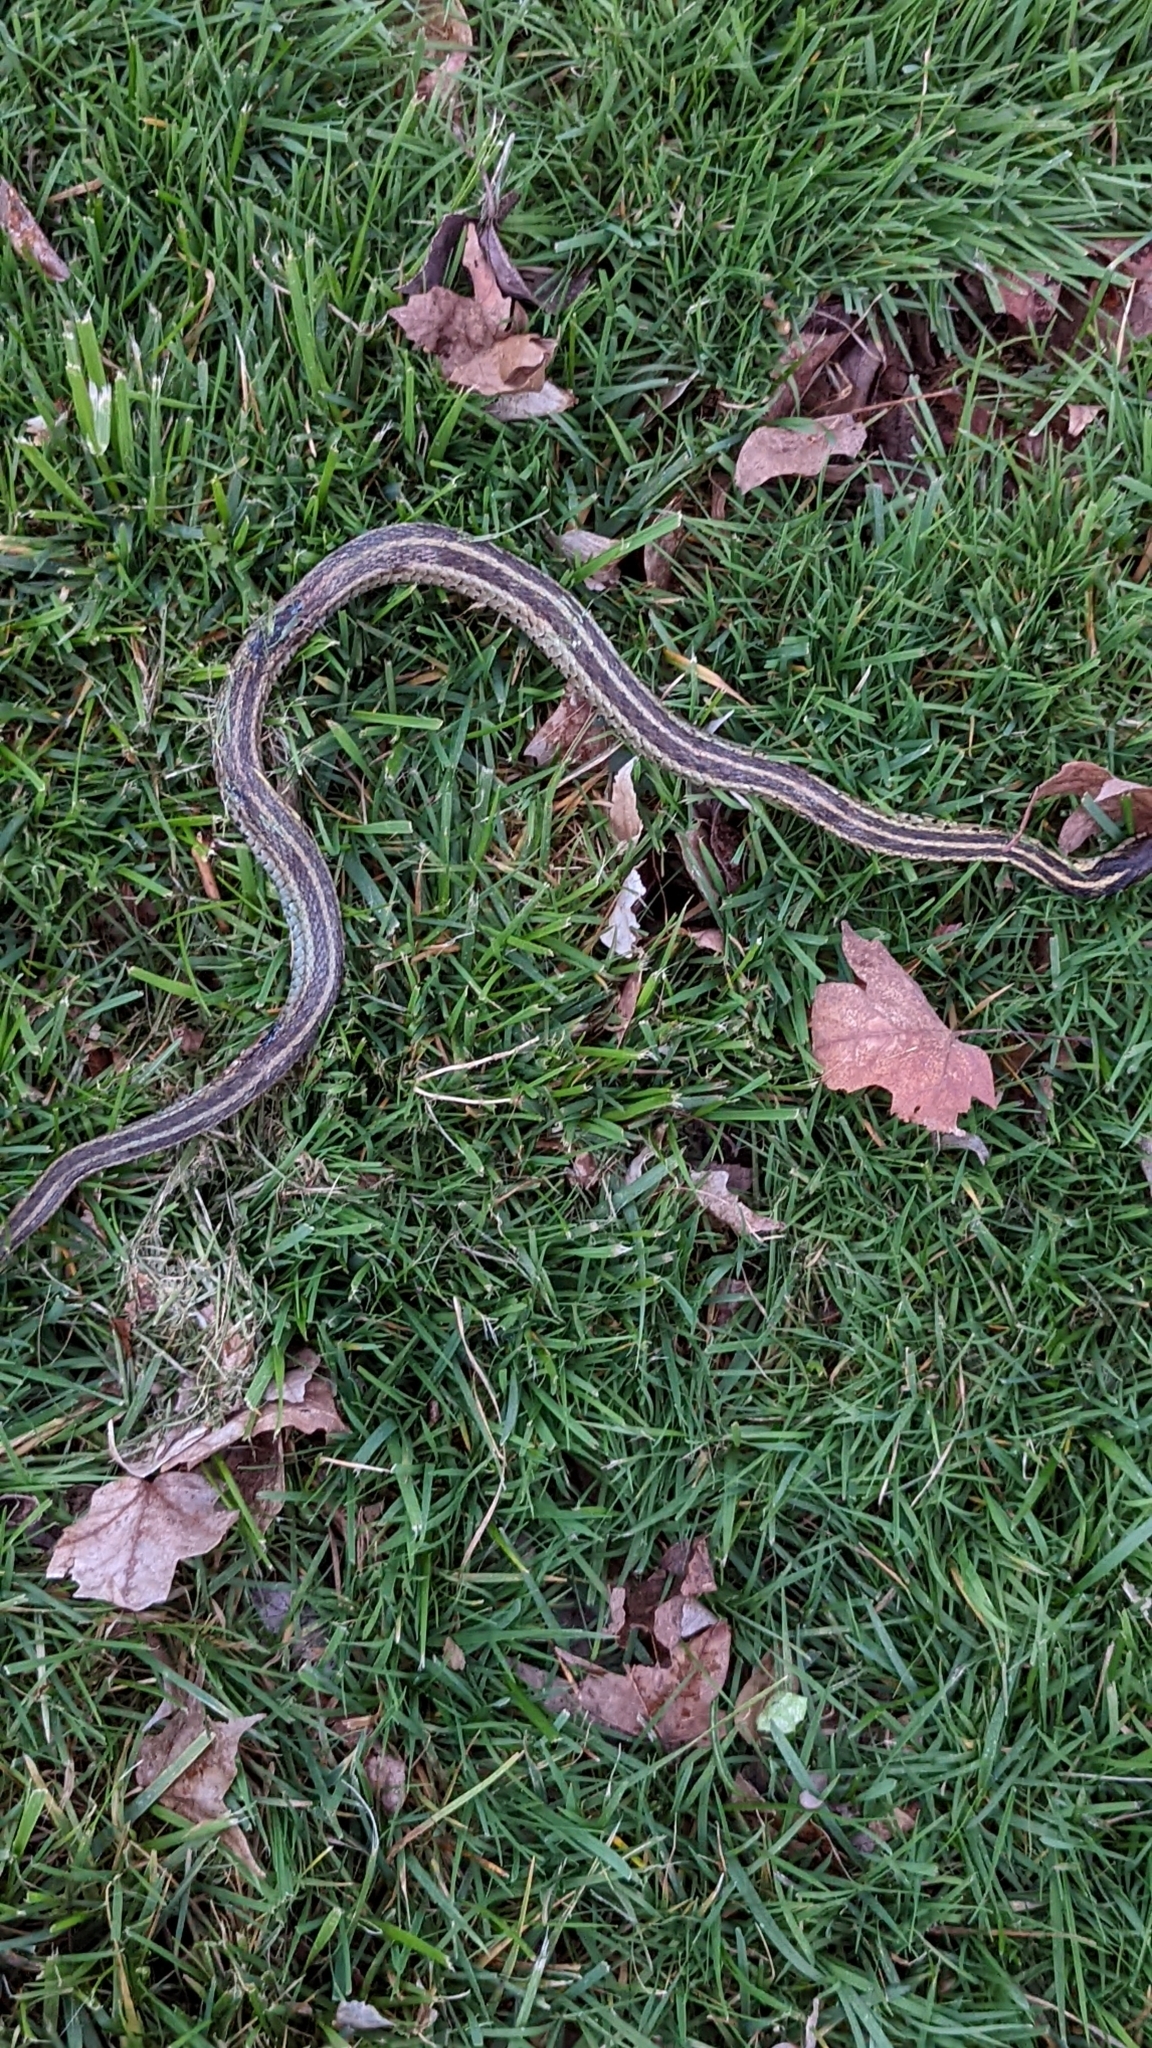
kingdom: Animalia
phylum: Chordata
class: Squamata
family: Colubridae
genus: Thamnophis
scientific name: Thamnophis sirtalis
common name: Common garter snake
